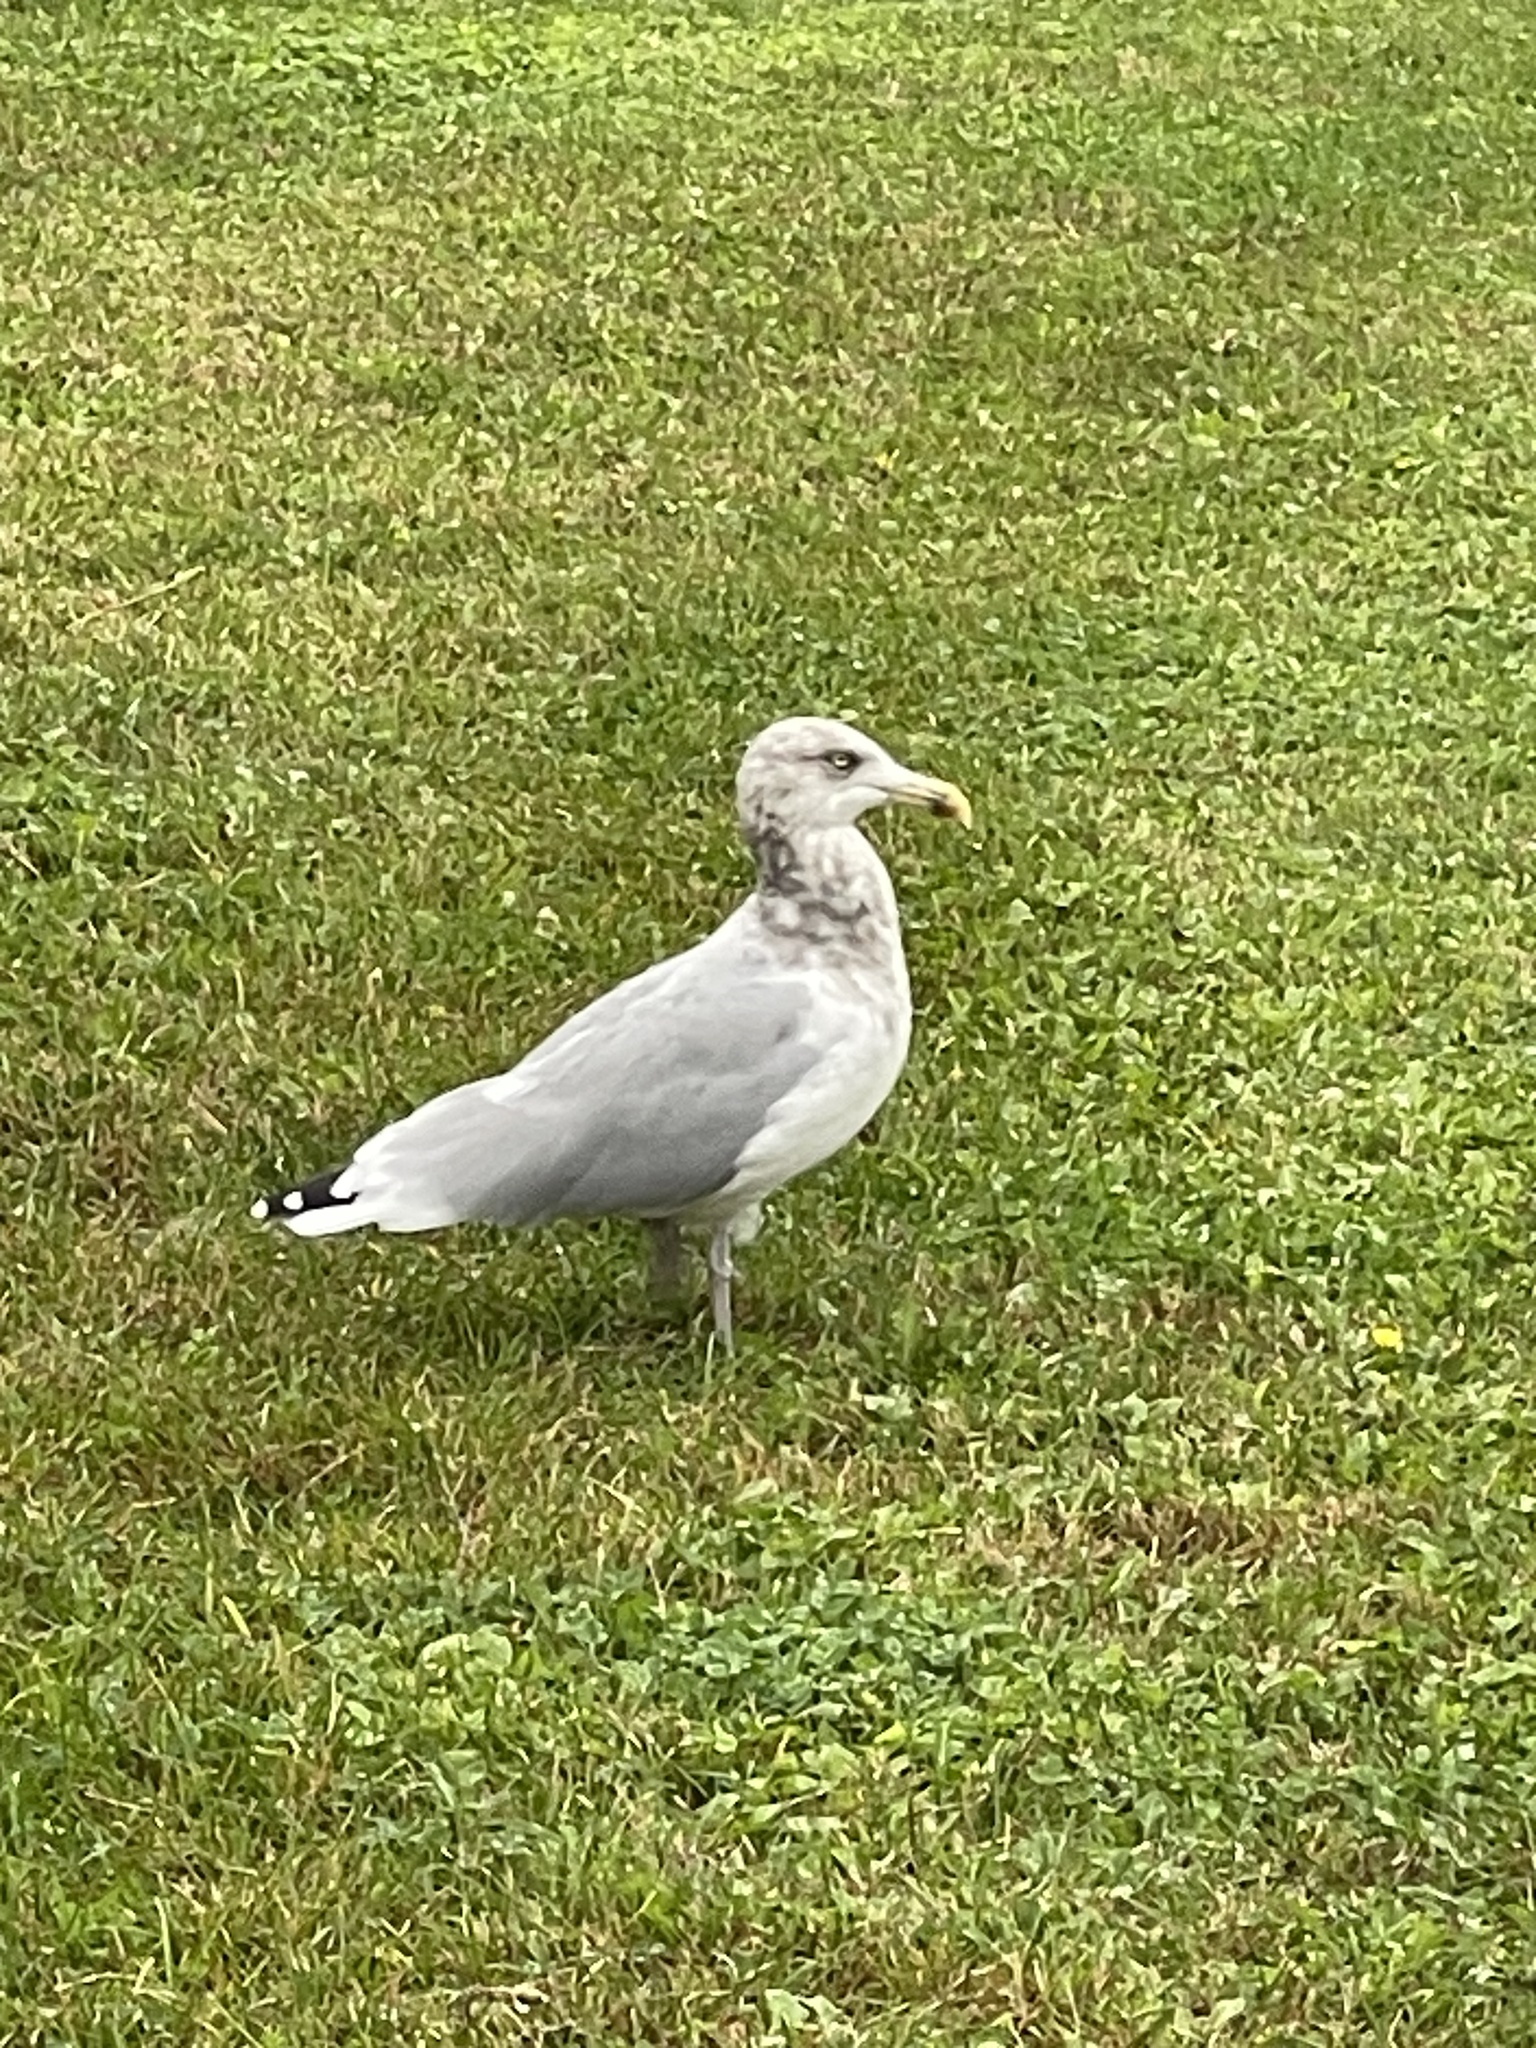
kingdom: Animalia
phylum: Chordata
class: Aves
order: Charadriiformes
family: Laridae
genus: Larus
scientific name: Larus argentatus
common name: Herring gull
